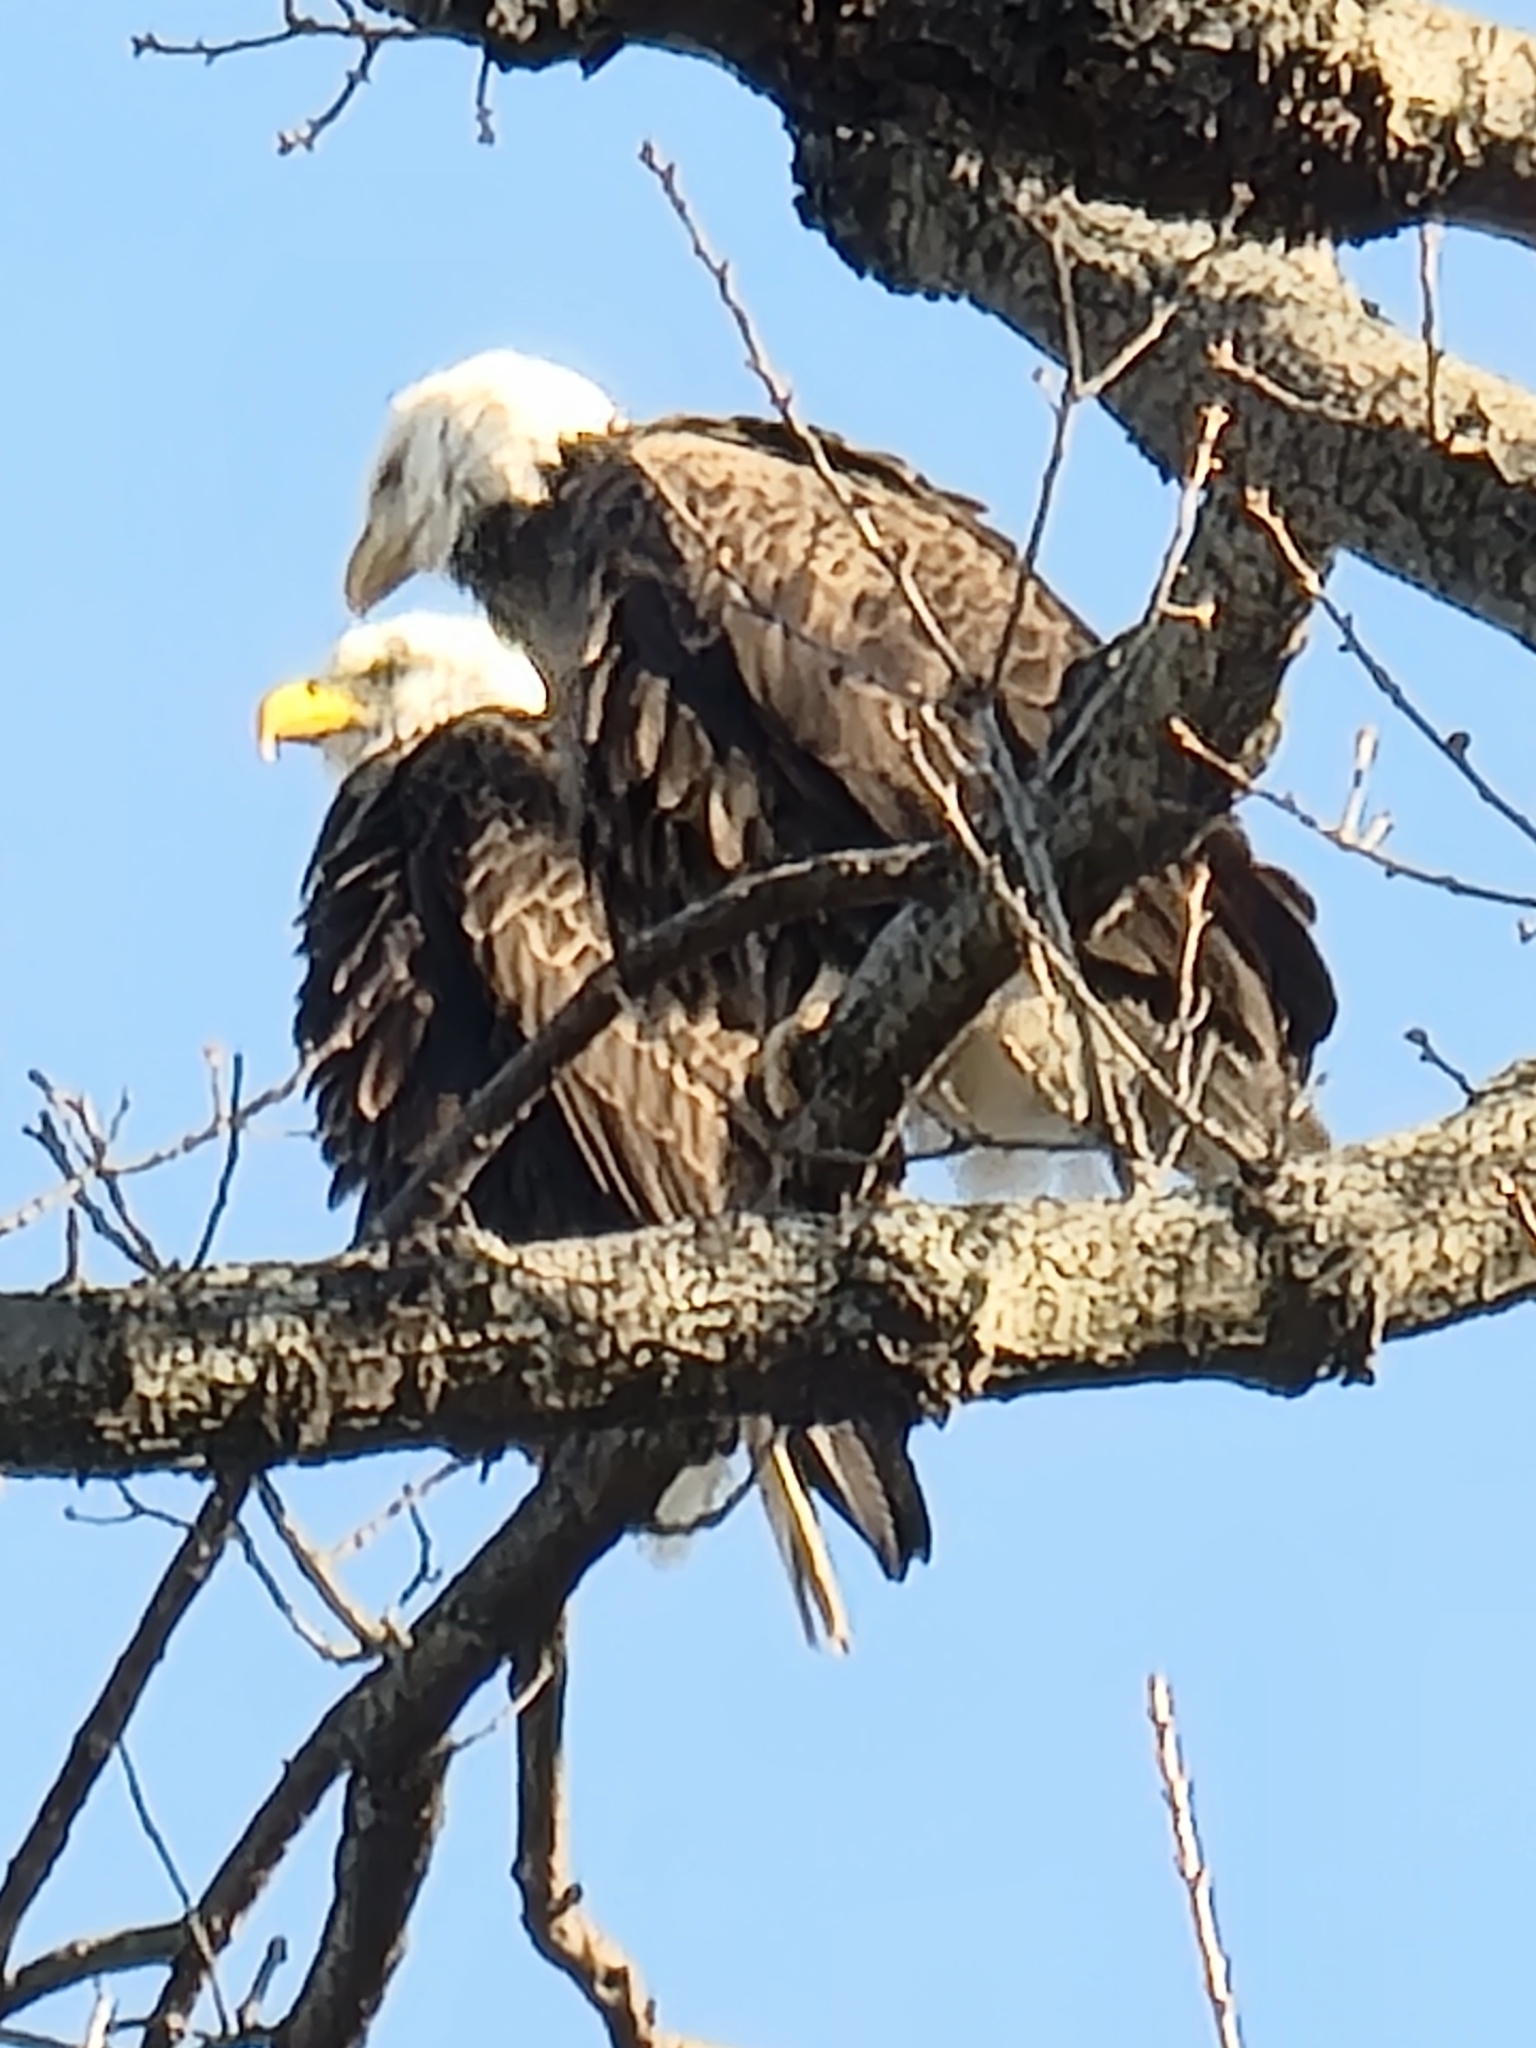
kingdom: Animalia
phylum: Chordata
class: Aves
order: Accipitriformes
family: Accipitridae
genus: Haliaeetus
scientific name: Haliaeetus leucocephalus
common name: Bald eagle
